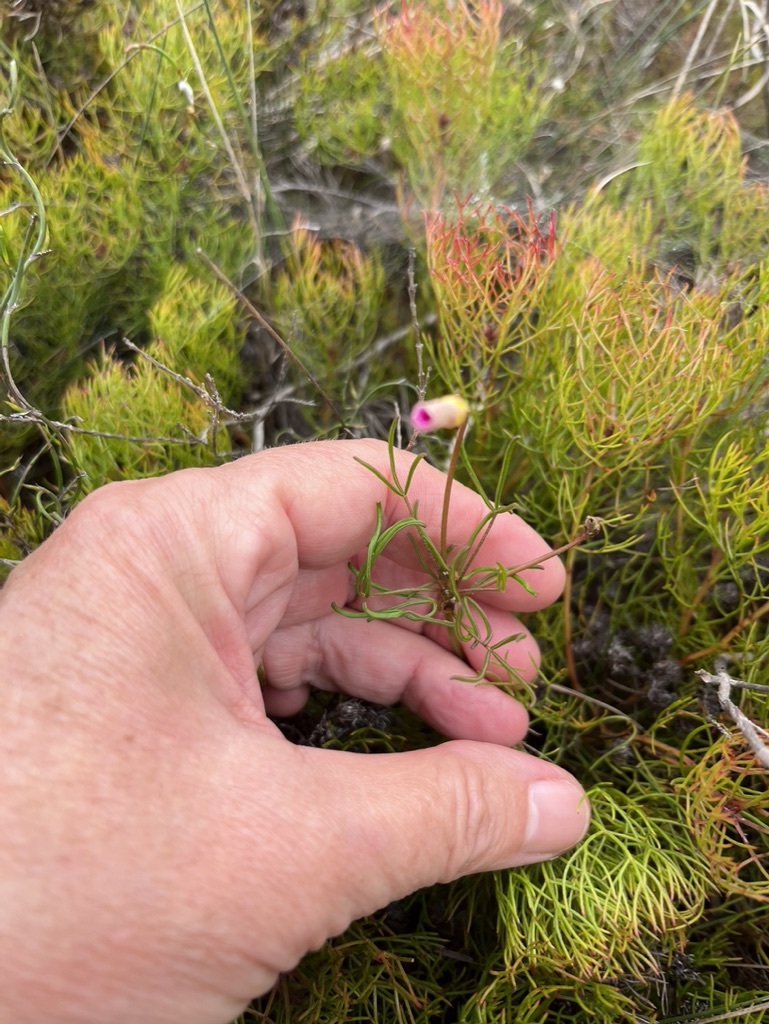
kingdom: Plantae
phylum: Tracheophyta
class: Magnoliopsida
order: Oxalidales
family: Oxalidaceae
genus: Oxalis
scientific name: Oxalis polyphylla
